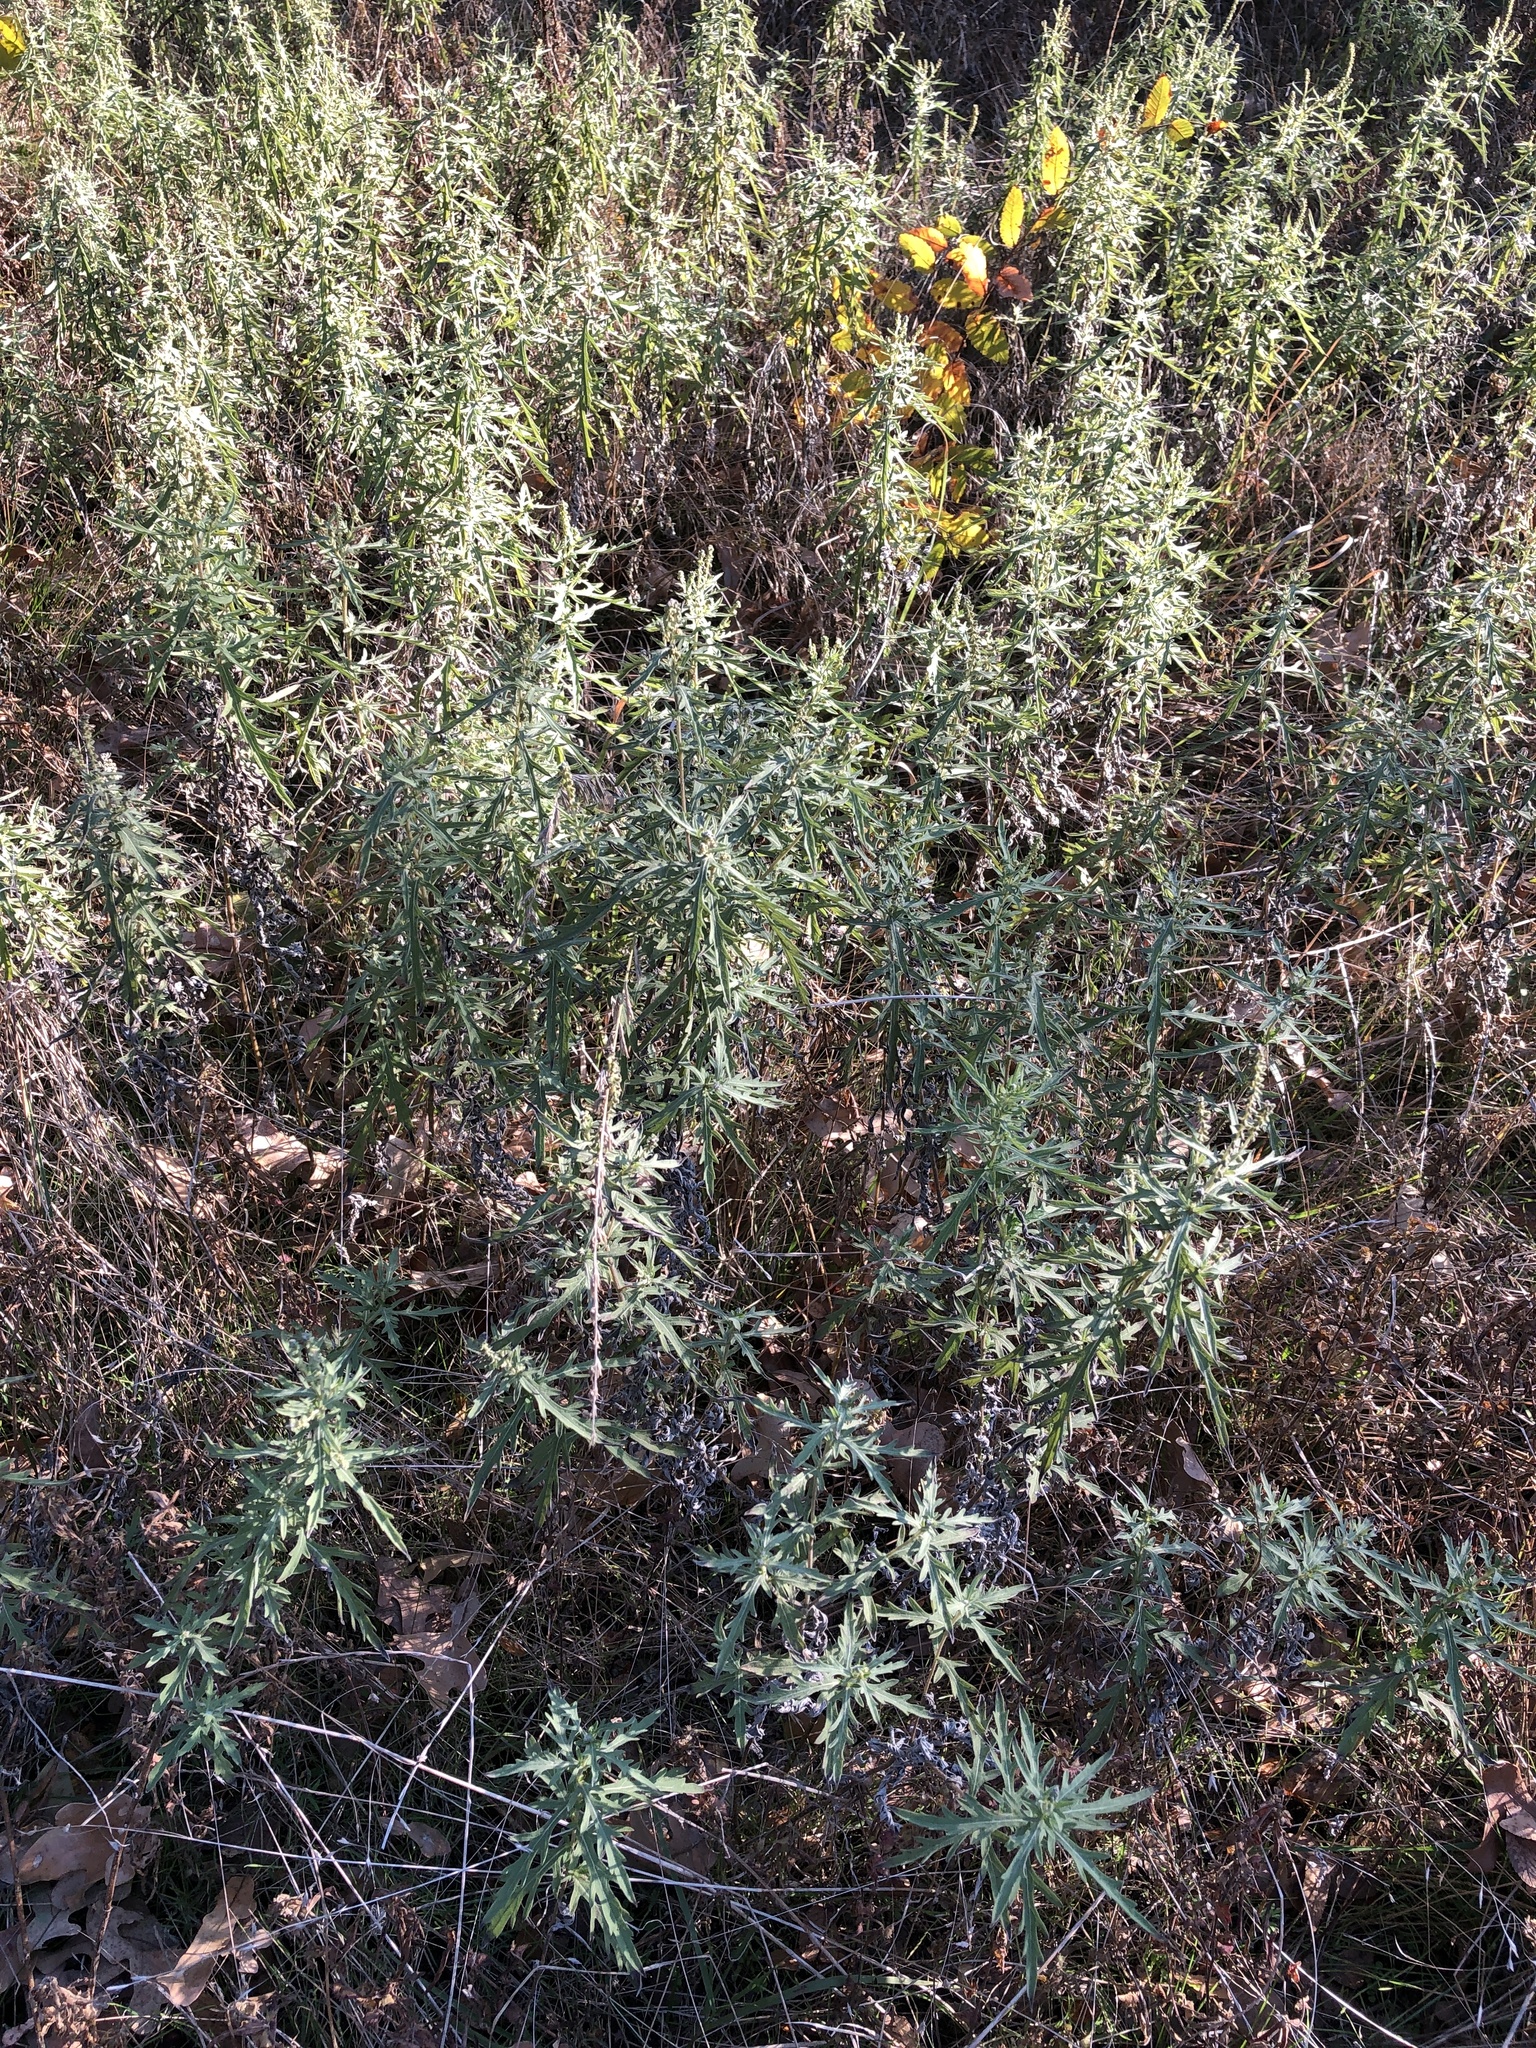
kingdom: Plantae
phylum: Tracheophyta
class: Magnoliopsida
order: Asterales
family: Asteraceae
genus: Ambrosia
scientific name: Ambrosia psilostachya
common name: Perennial ragweed
